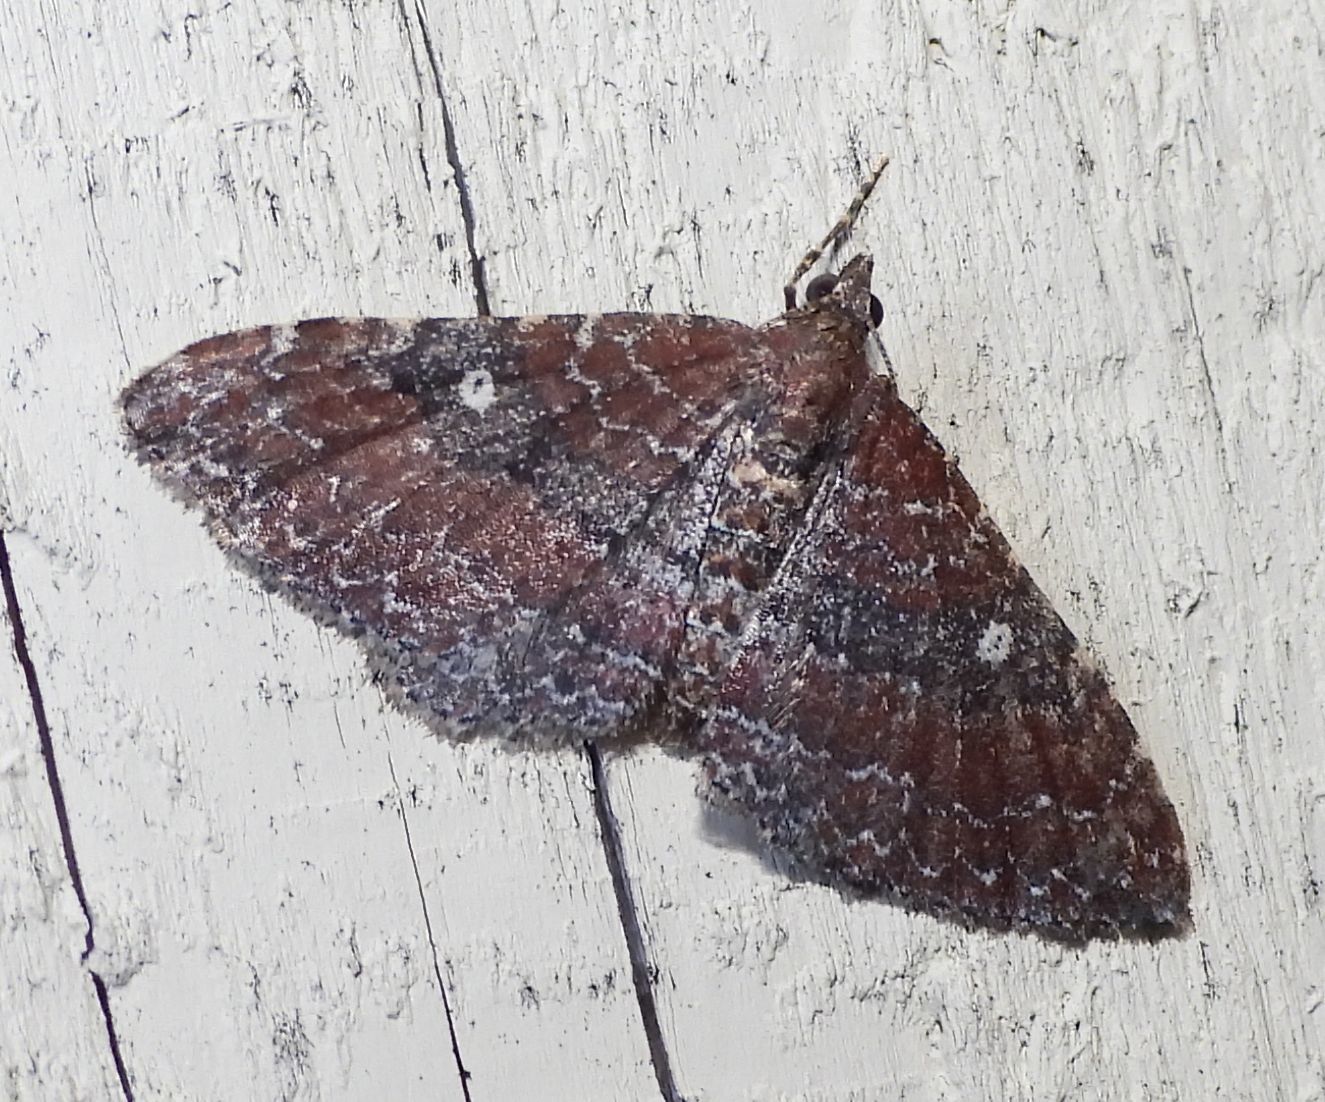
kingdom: Animalia
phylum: Arthropoda
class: Insecta
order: Lepidoptera
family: Geometridae
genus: Orthonama
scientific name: Orthonama obstipata
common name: The gem
